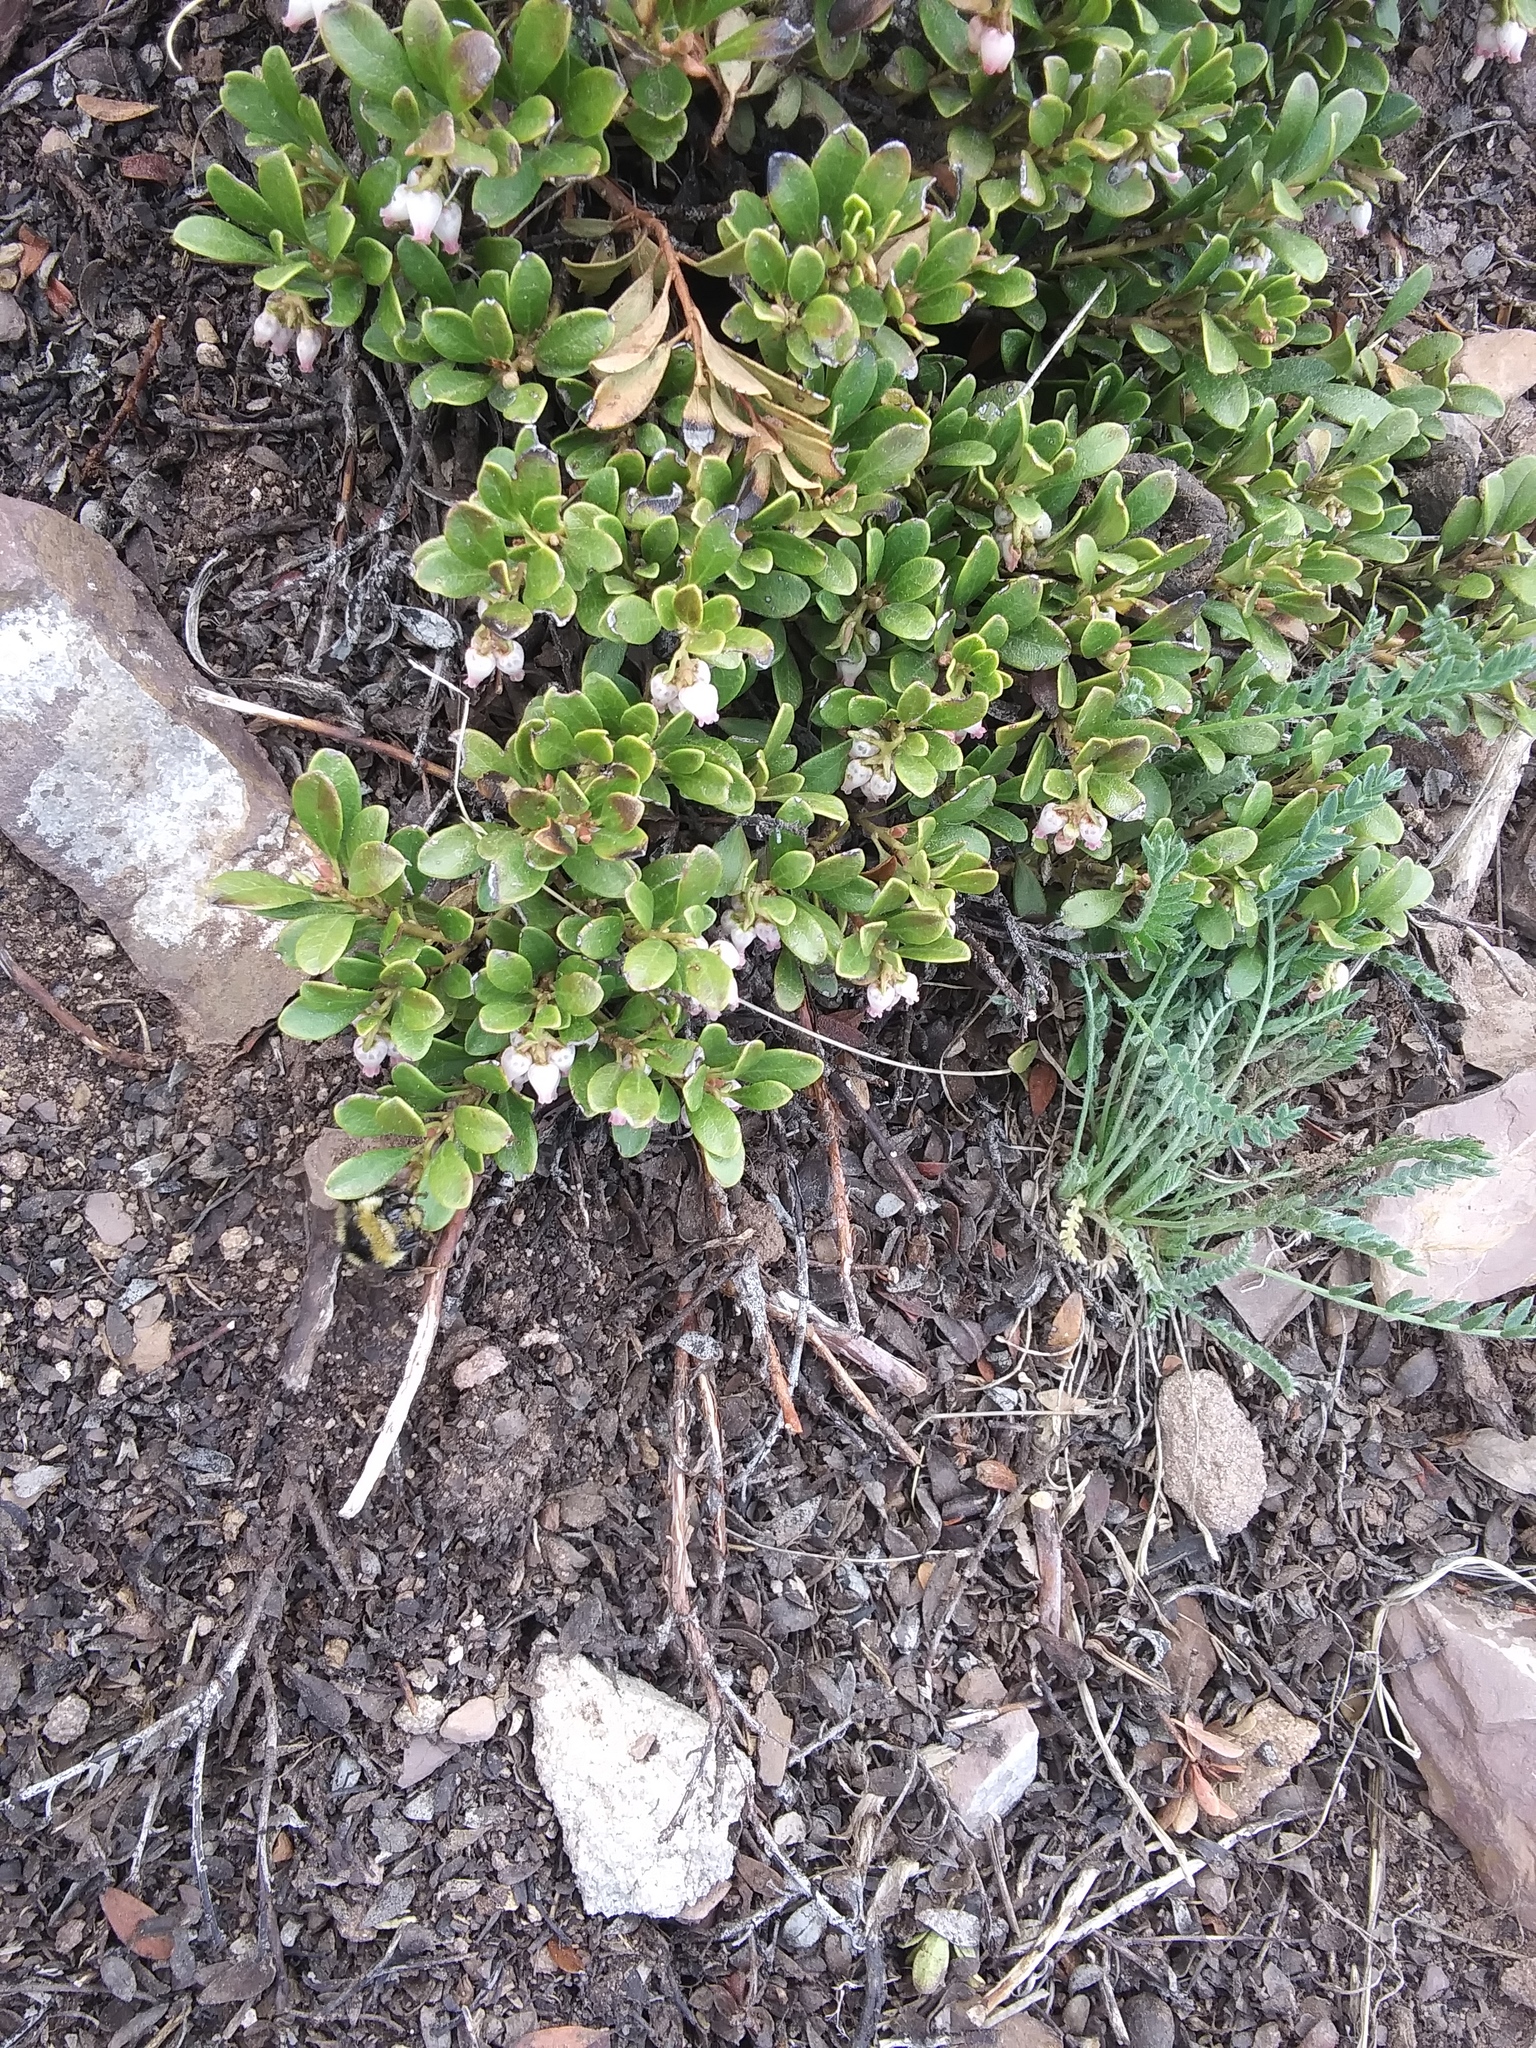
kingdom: Plantae
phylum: Tracheophyta
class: Magnoliopsida
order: Ericales
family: Ericaceae
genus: Arctostaphylos
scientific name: Arctostaphylos uva-ursi
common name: Bearberry
